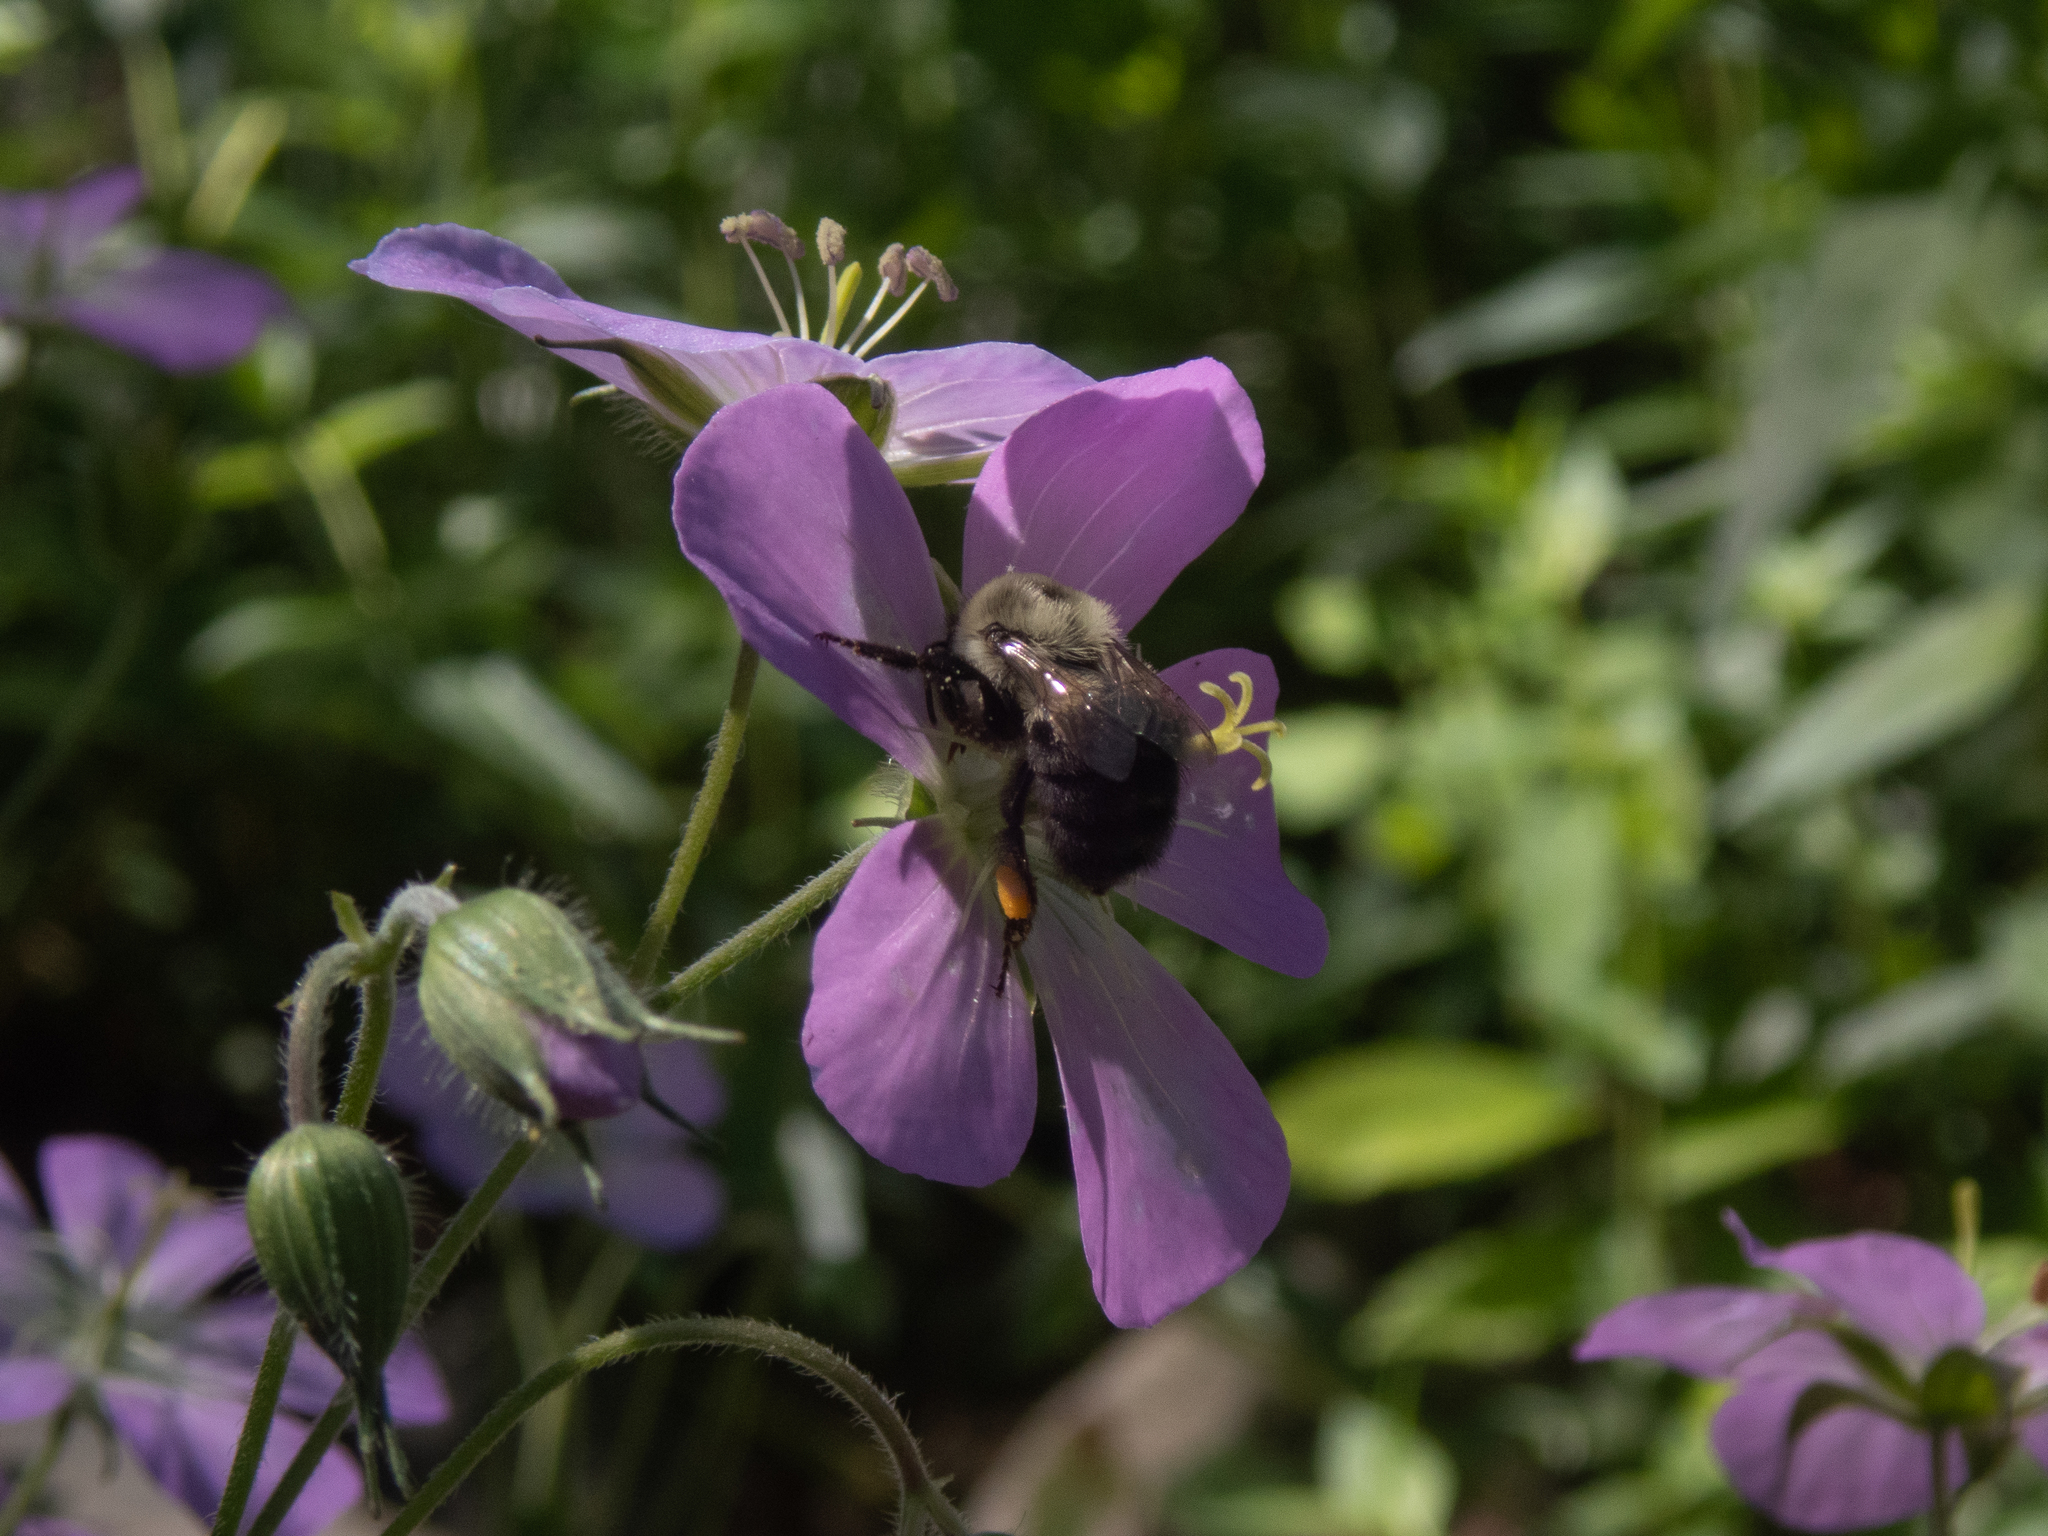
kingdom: Animalia
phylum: Arthropoda
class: Insecta
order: Hymenoptera
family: Apidae
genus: Bombus
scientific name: Bombus impatiens
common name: Common eastern bumble bee
